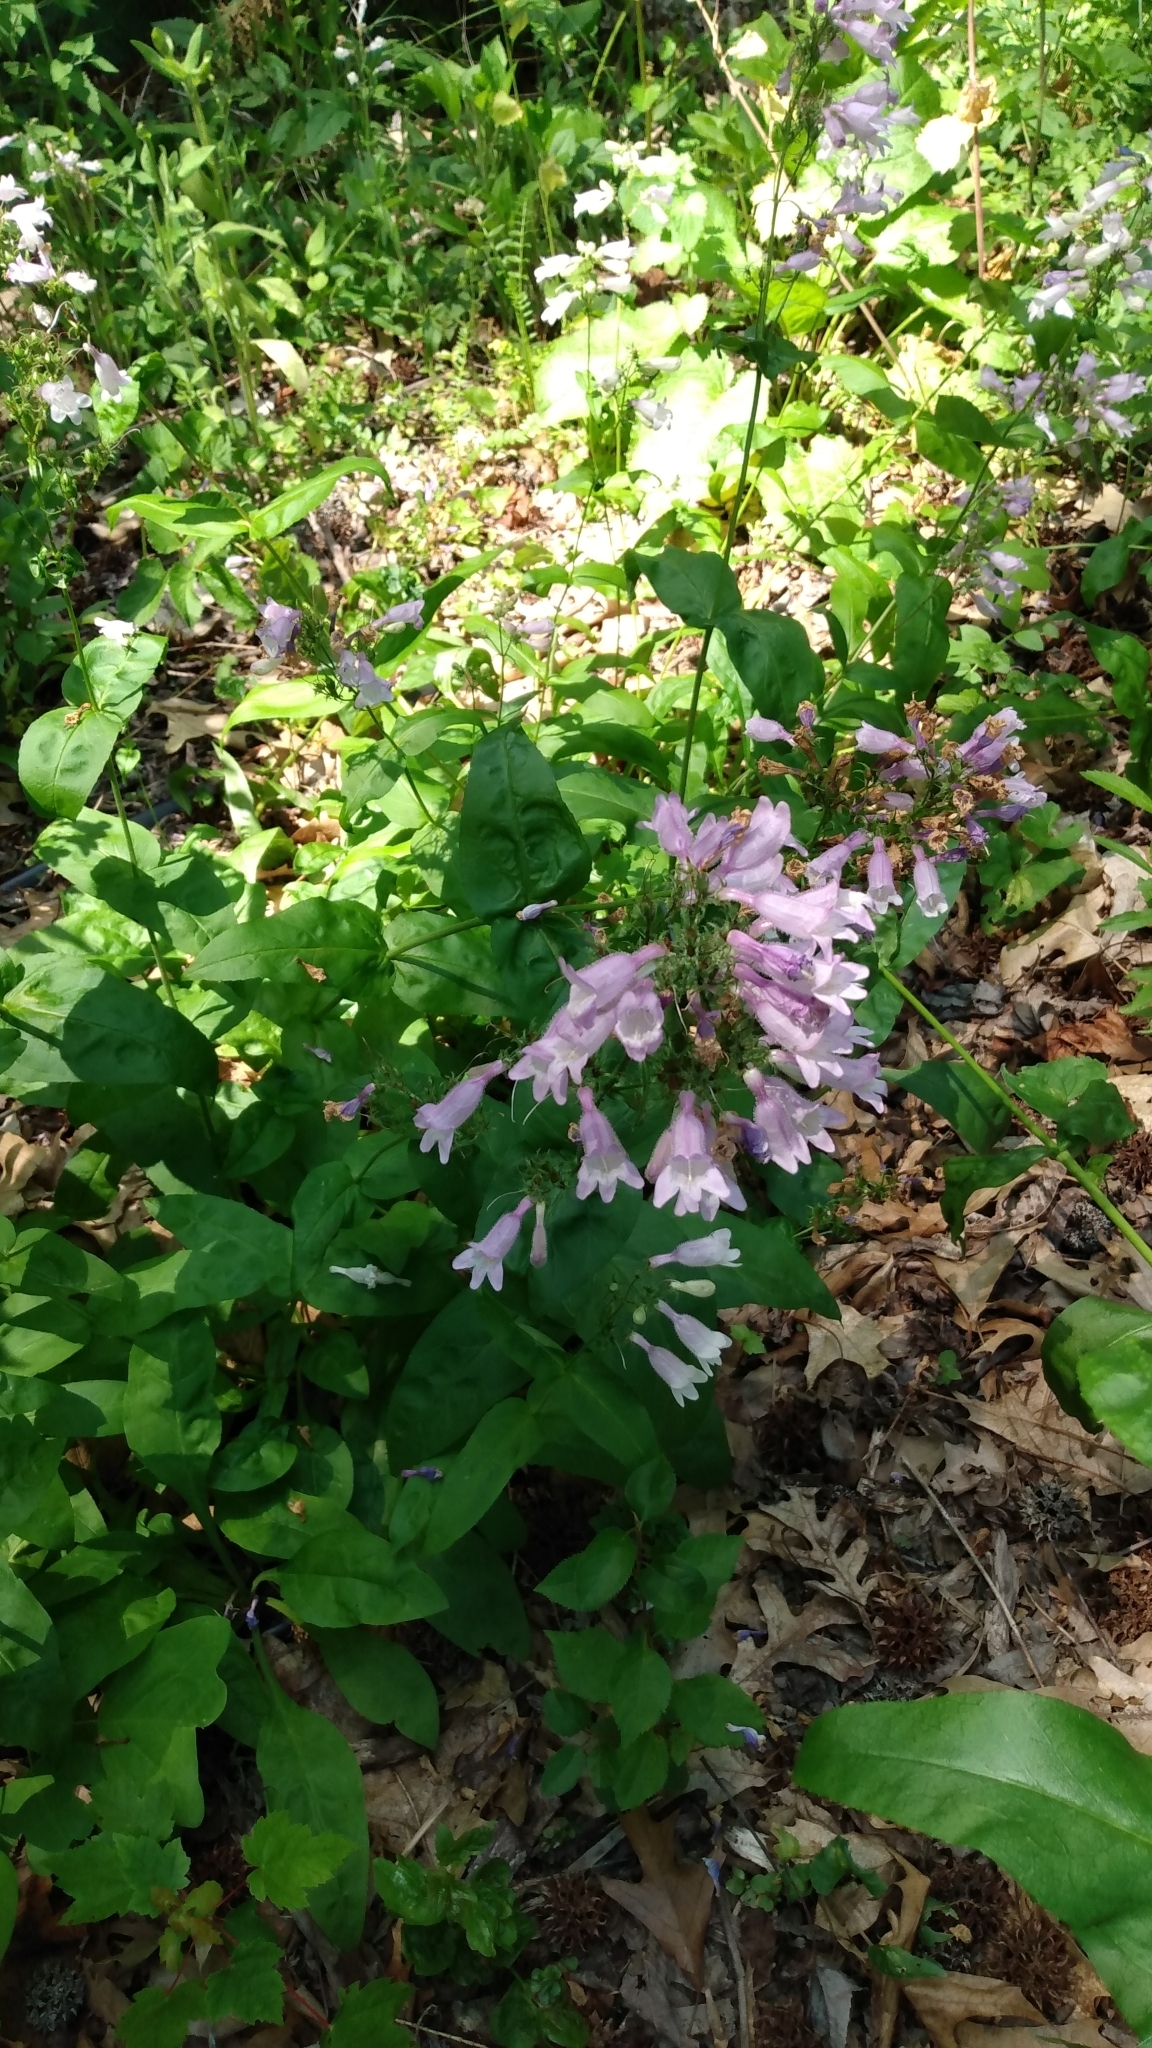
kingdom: Plantae
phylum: Tracheophyta
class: Magnoliopsida
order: Lamiales
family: Plantaginaceae
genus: Penstemon
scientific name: Penstemon calycosus
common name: Long-sepal beardtongue
